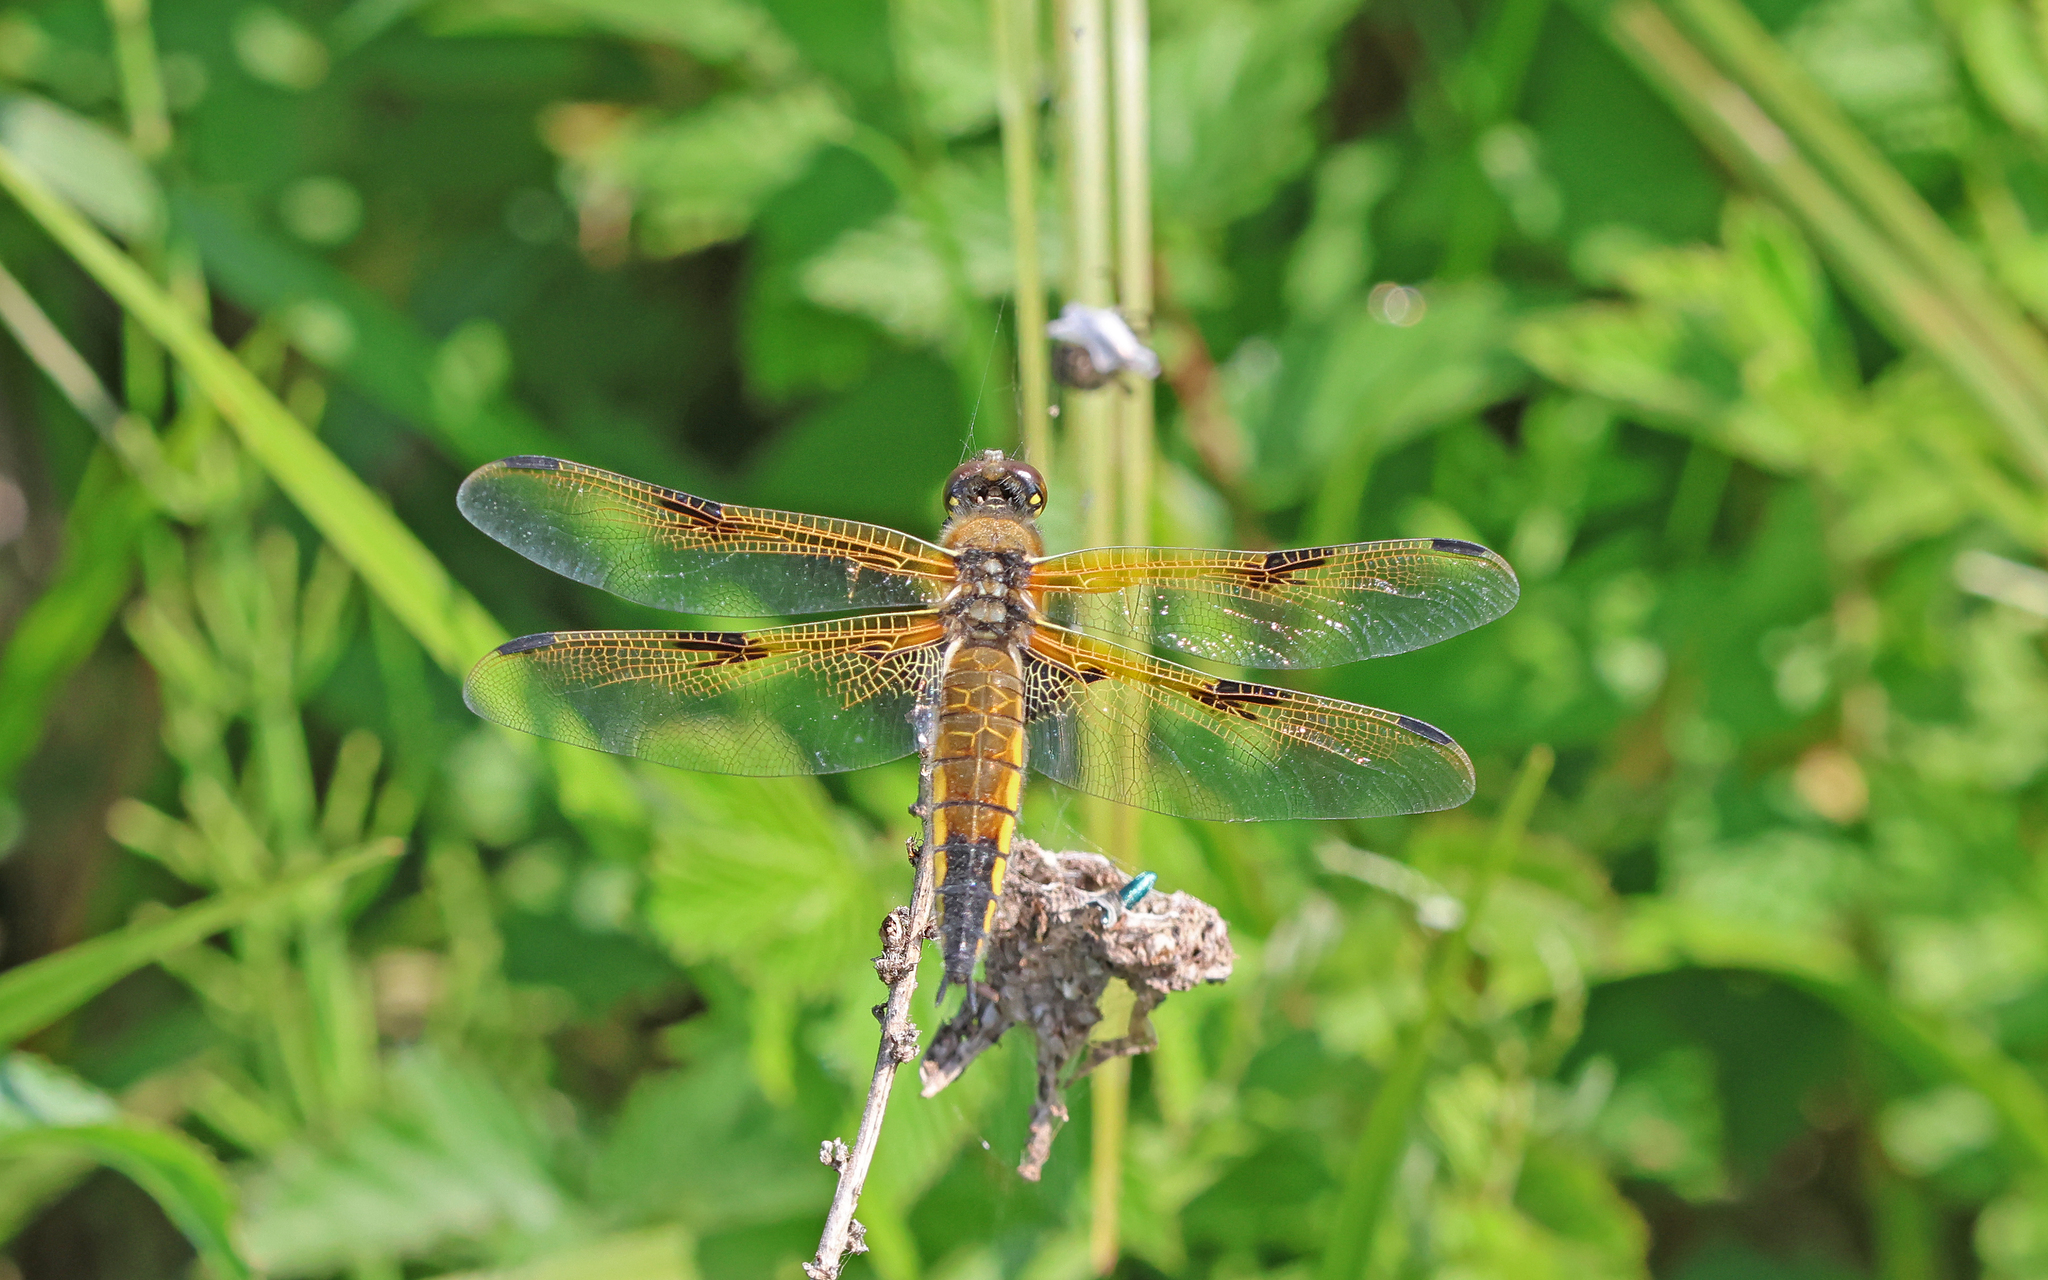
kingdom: Animalia
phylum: Arthropoda
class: Insecta
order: Odonata
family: Libellulidae
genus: Libellula
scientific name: Libellula quadrimaculata
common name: Four-spotted chaser
